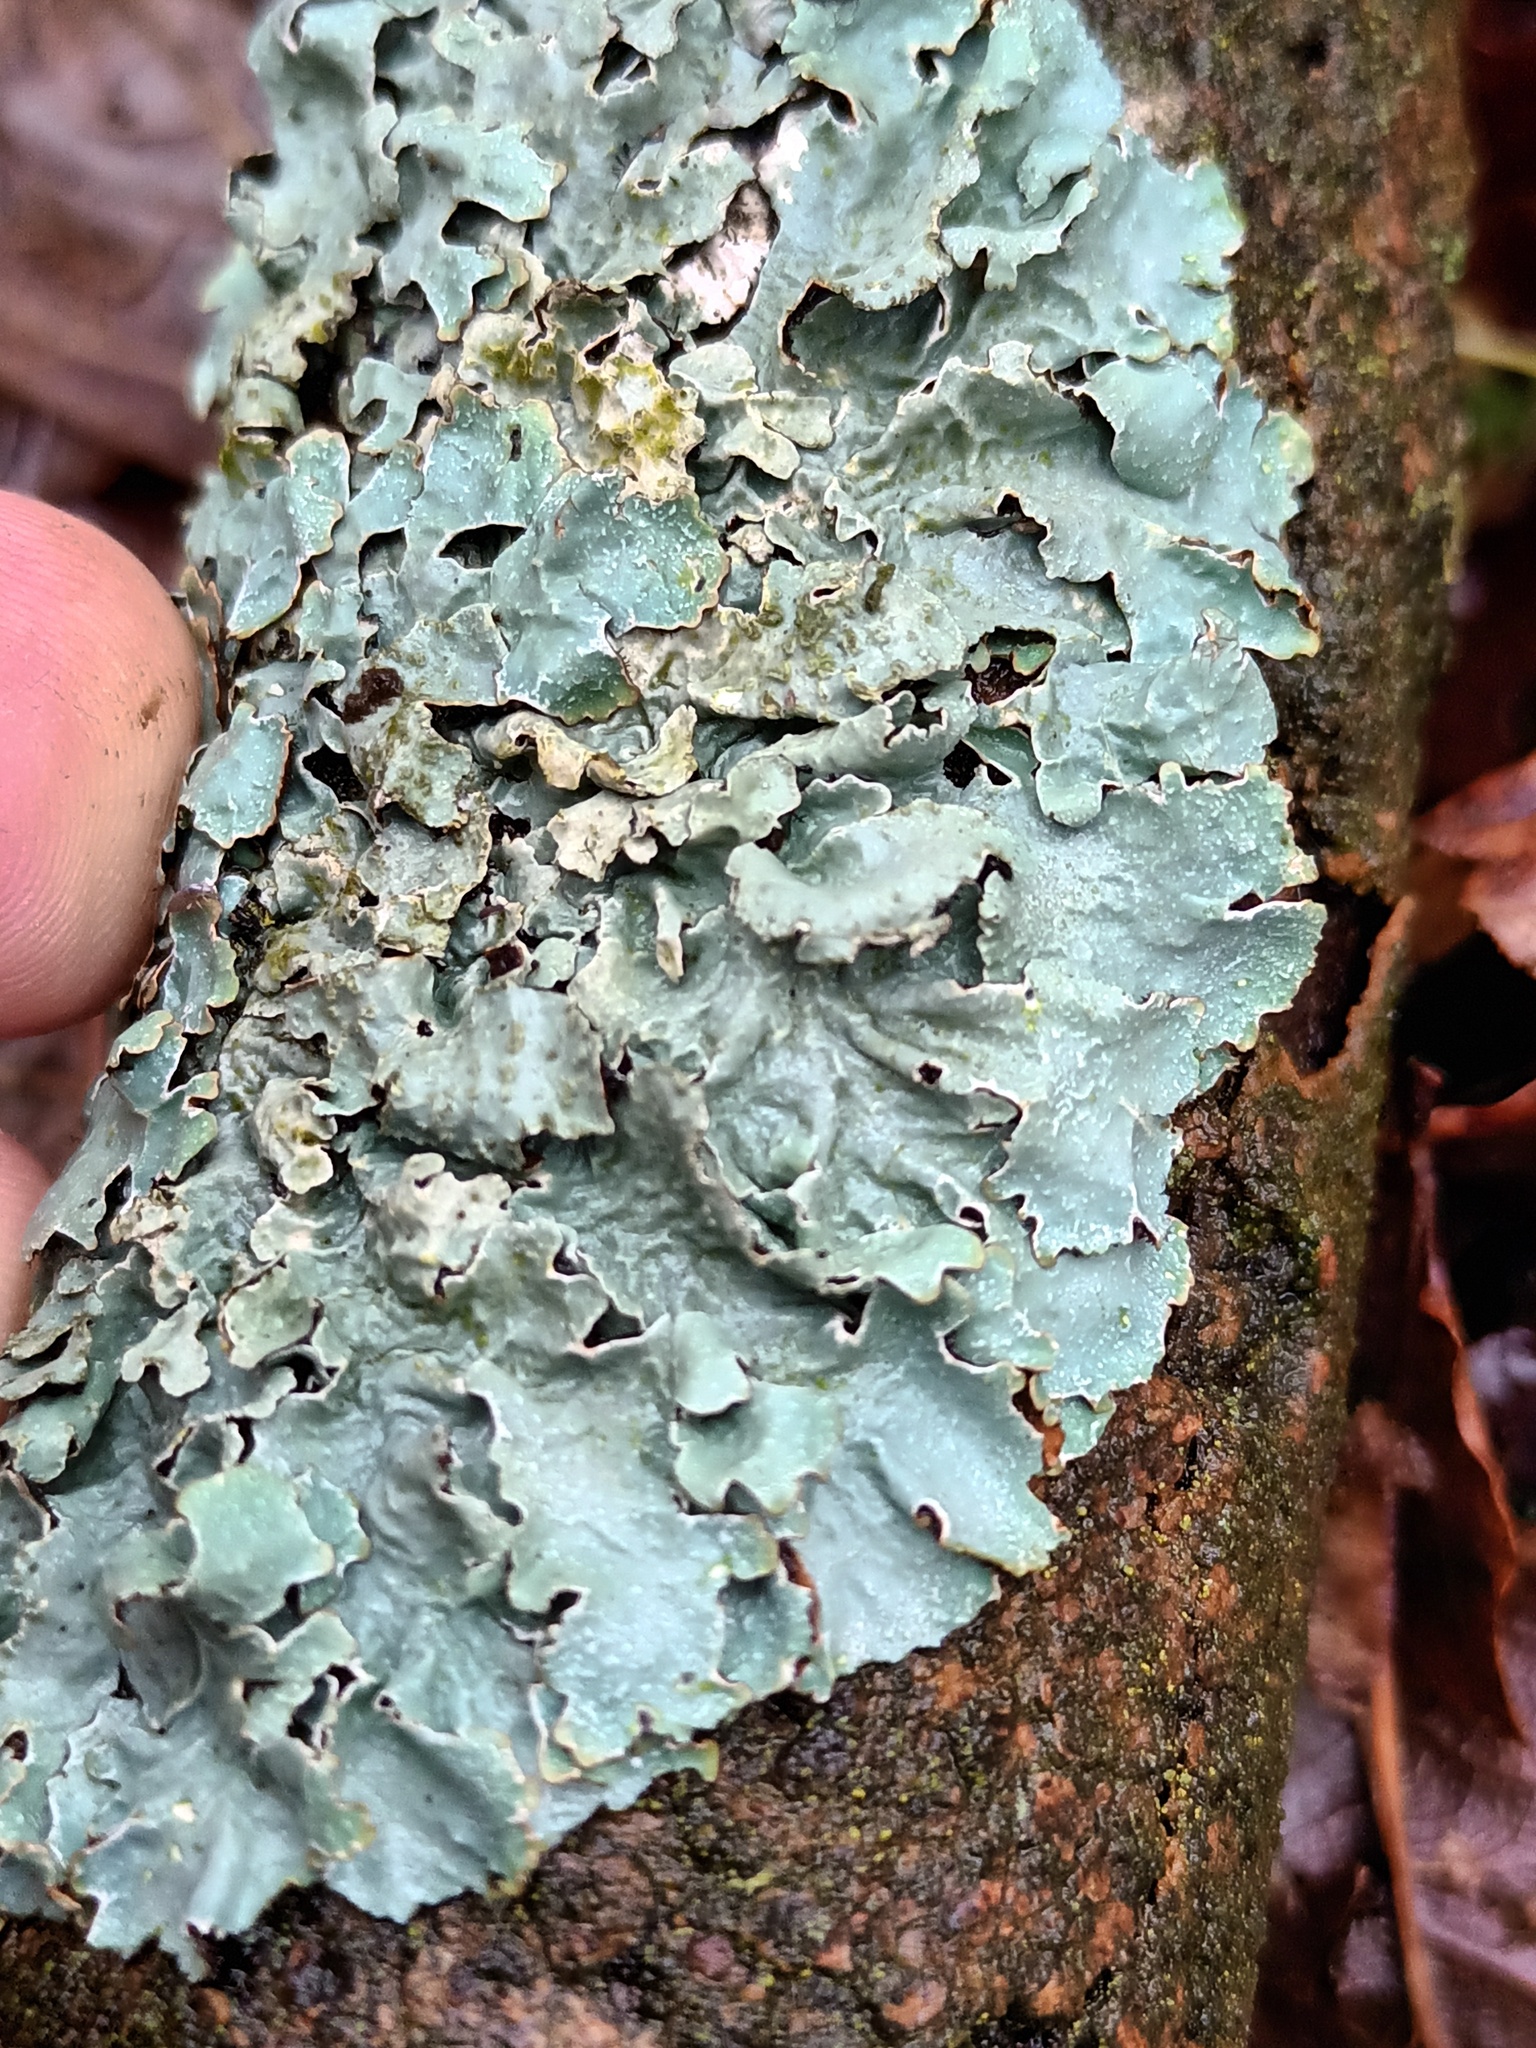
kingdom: Fungi
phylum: Ascomycota
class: Lecanoromycetes
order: Lecanorales
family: Parmeliaceae
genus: Parmelia
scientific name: Parmelia sulcata
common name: Netted shield lichen
